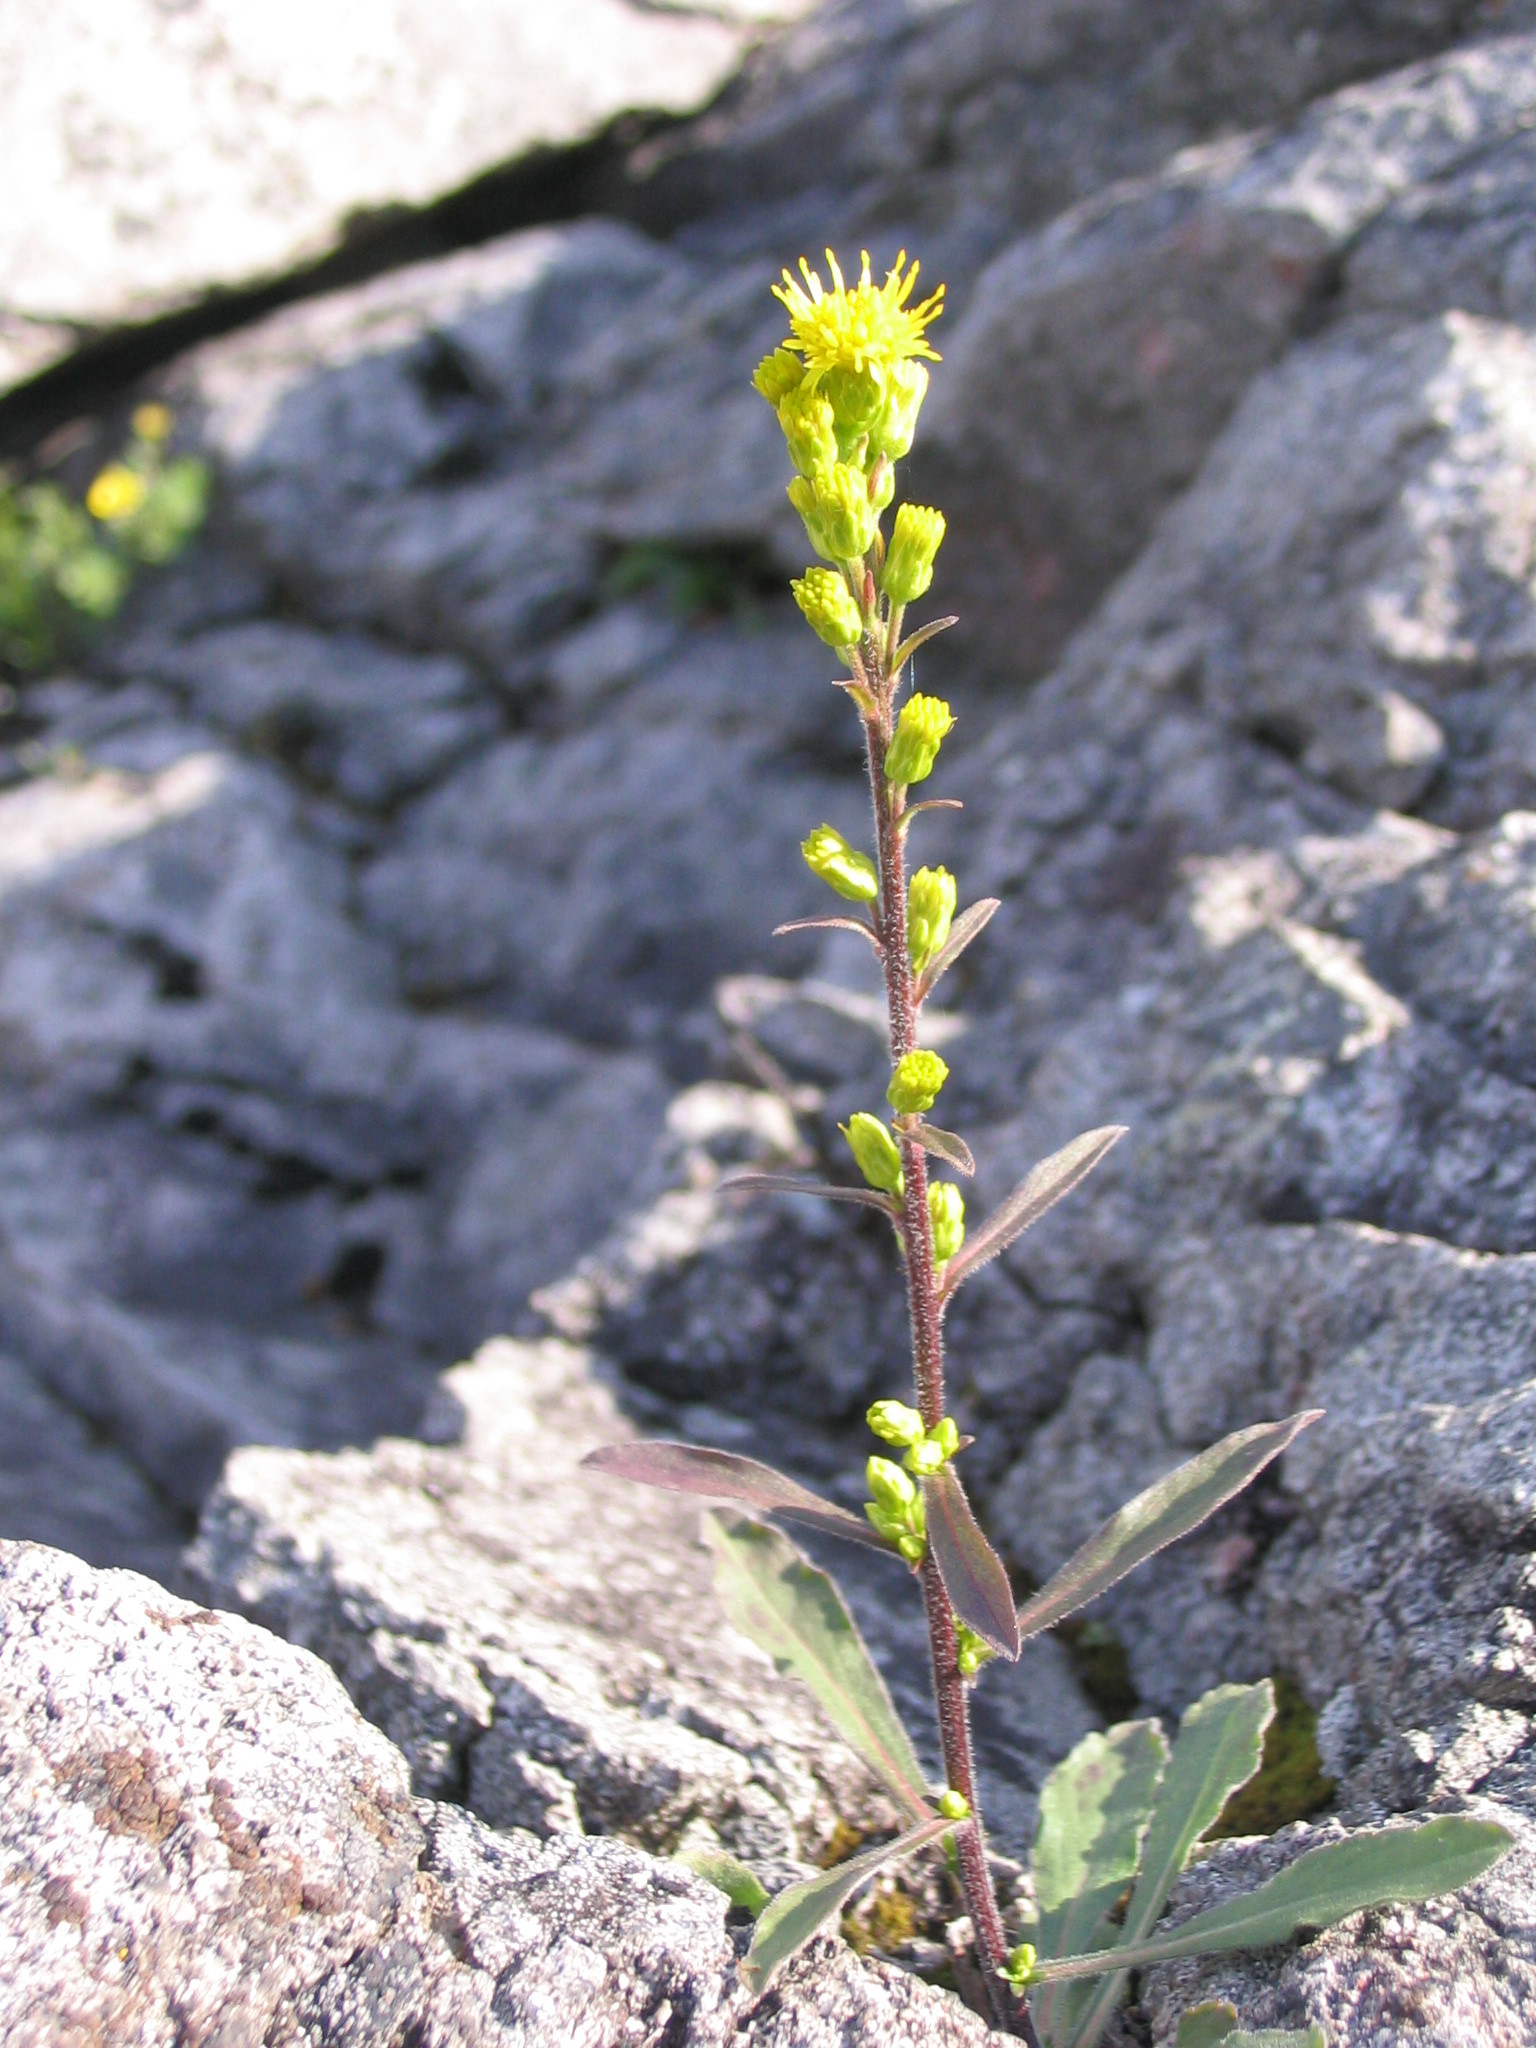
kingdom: Plantae
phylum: Tracheophyta
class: Magnoliopsida
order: Asterales
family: Asteraceae
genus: Solidago
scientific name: Solidago simplex
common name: Sticky goldenrod
